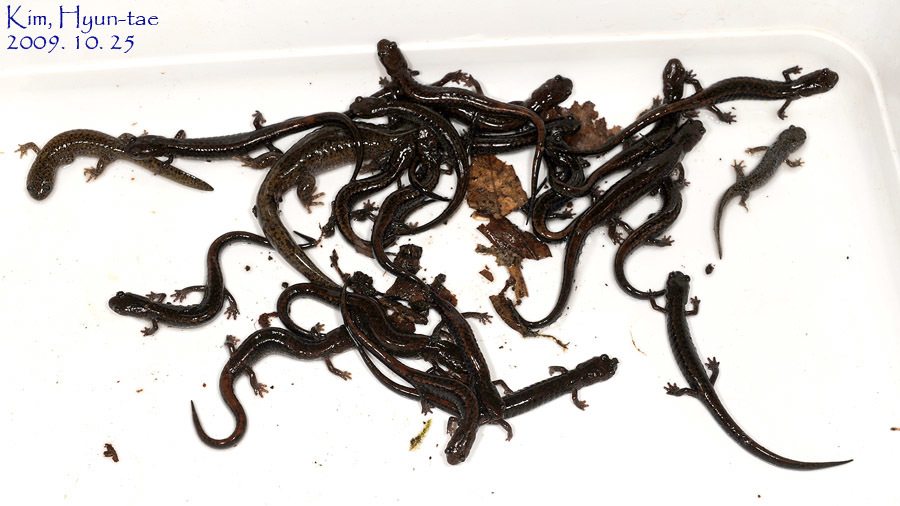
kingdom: Animalia
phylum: Chordata
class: Amphibia
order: Caudata
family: Hynobiidae
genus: Hynobius
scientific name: Hynobius leechii
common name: Gensan salamander
